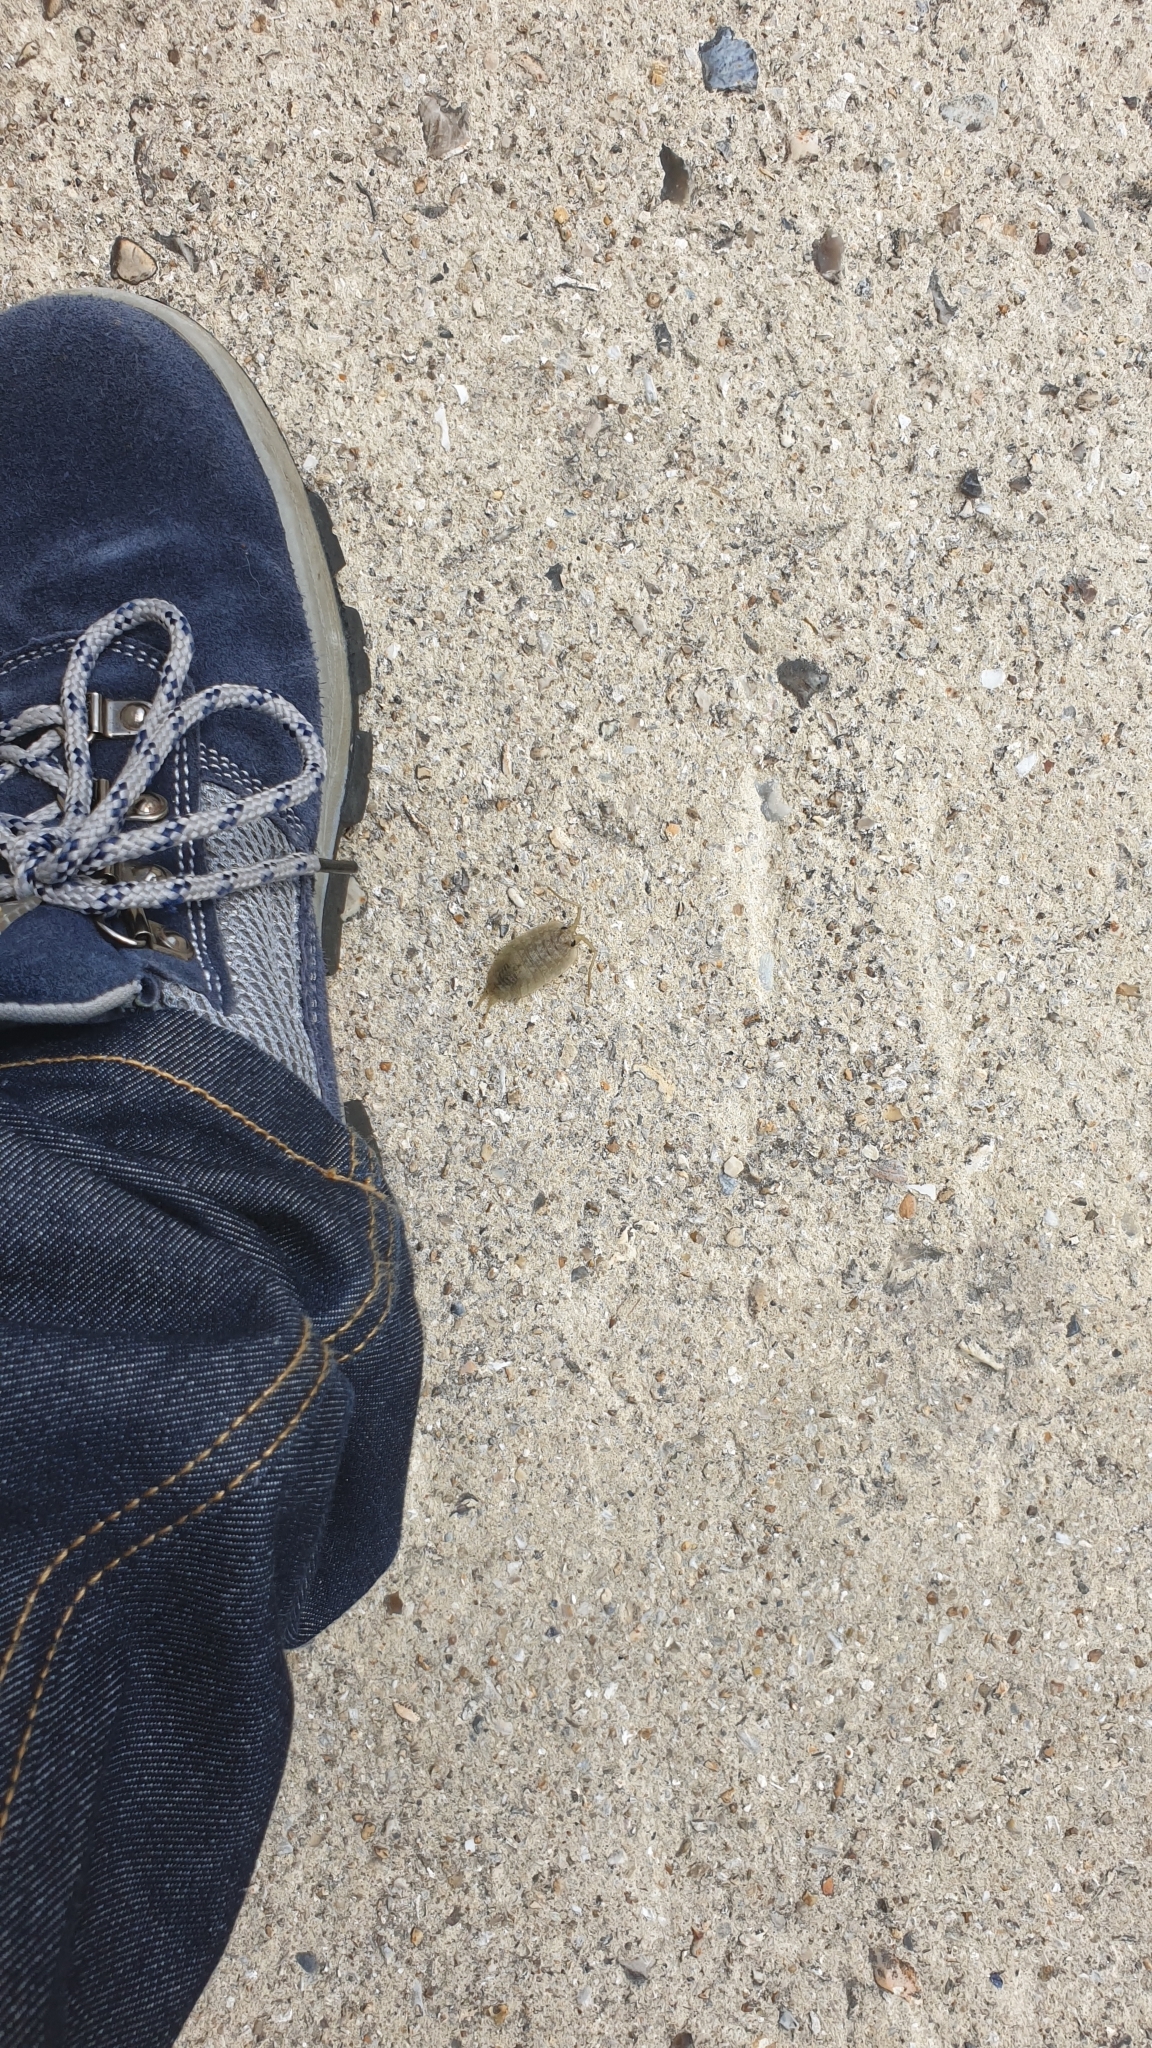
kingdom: Animalia
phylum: Arthropoda
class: Malacostraca
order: Isopoda
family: Ligiidae
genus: Ligia
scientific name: Ligia oceanica
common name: Sea slater
